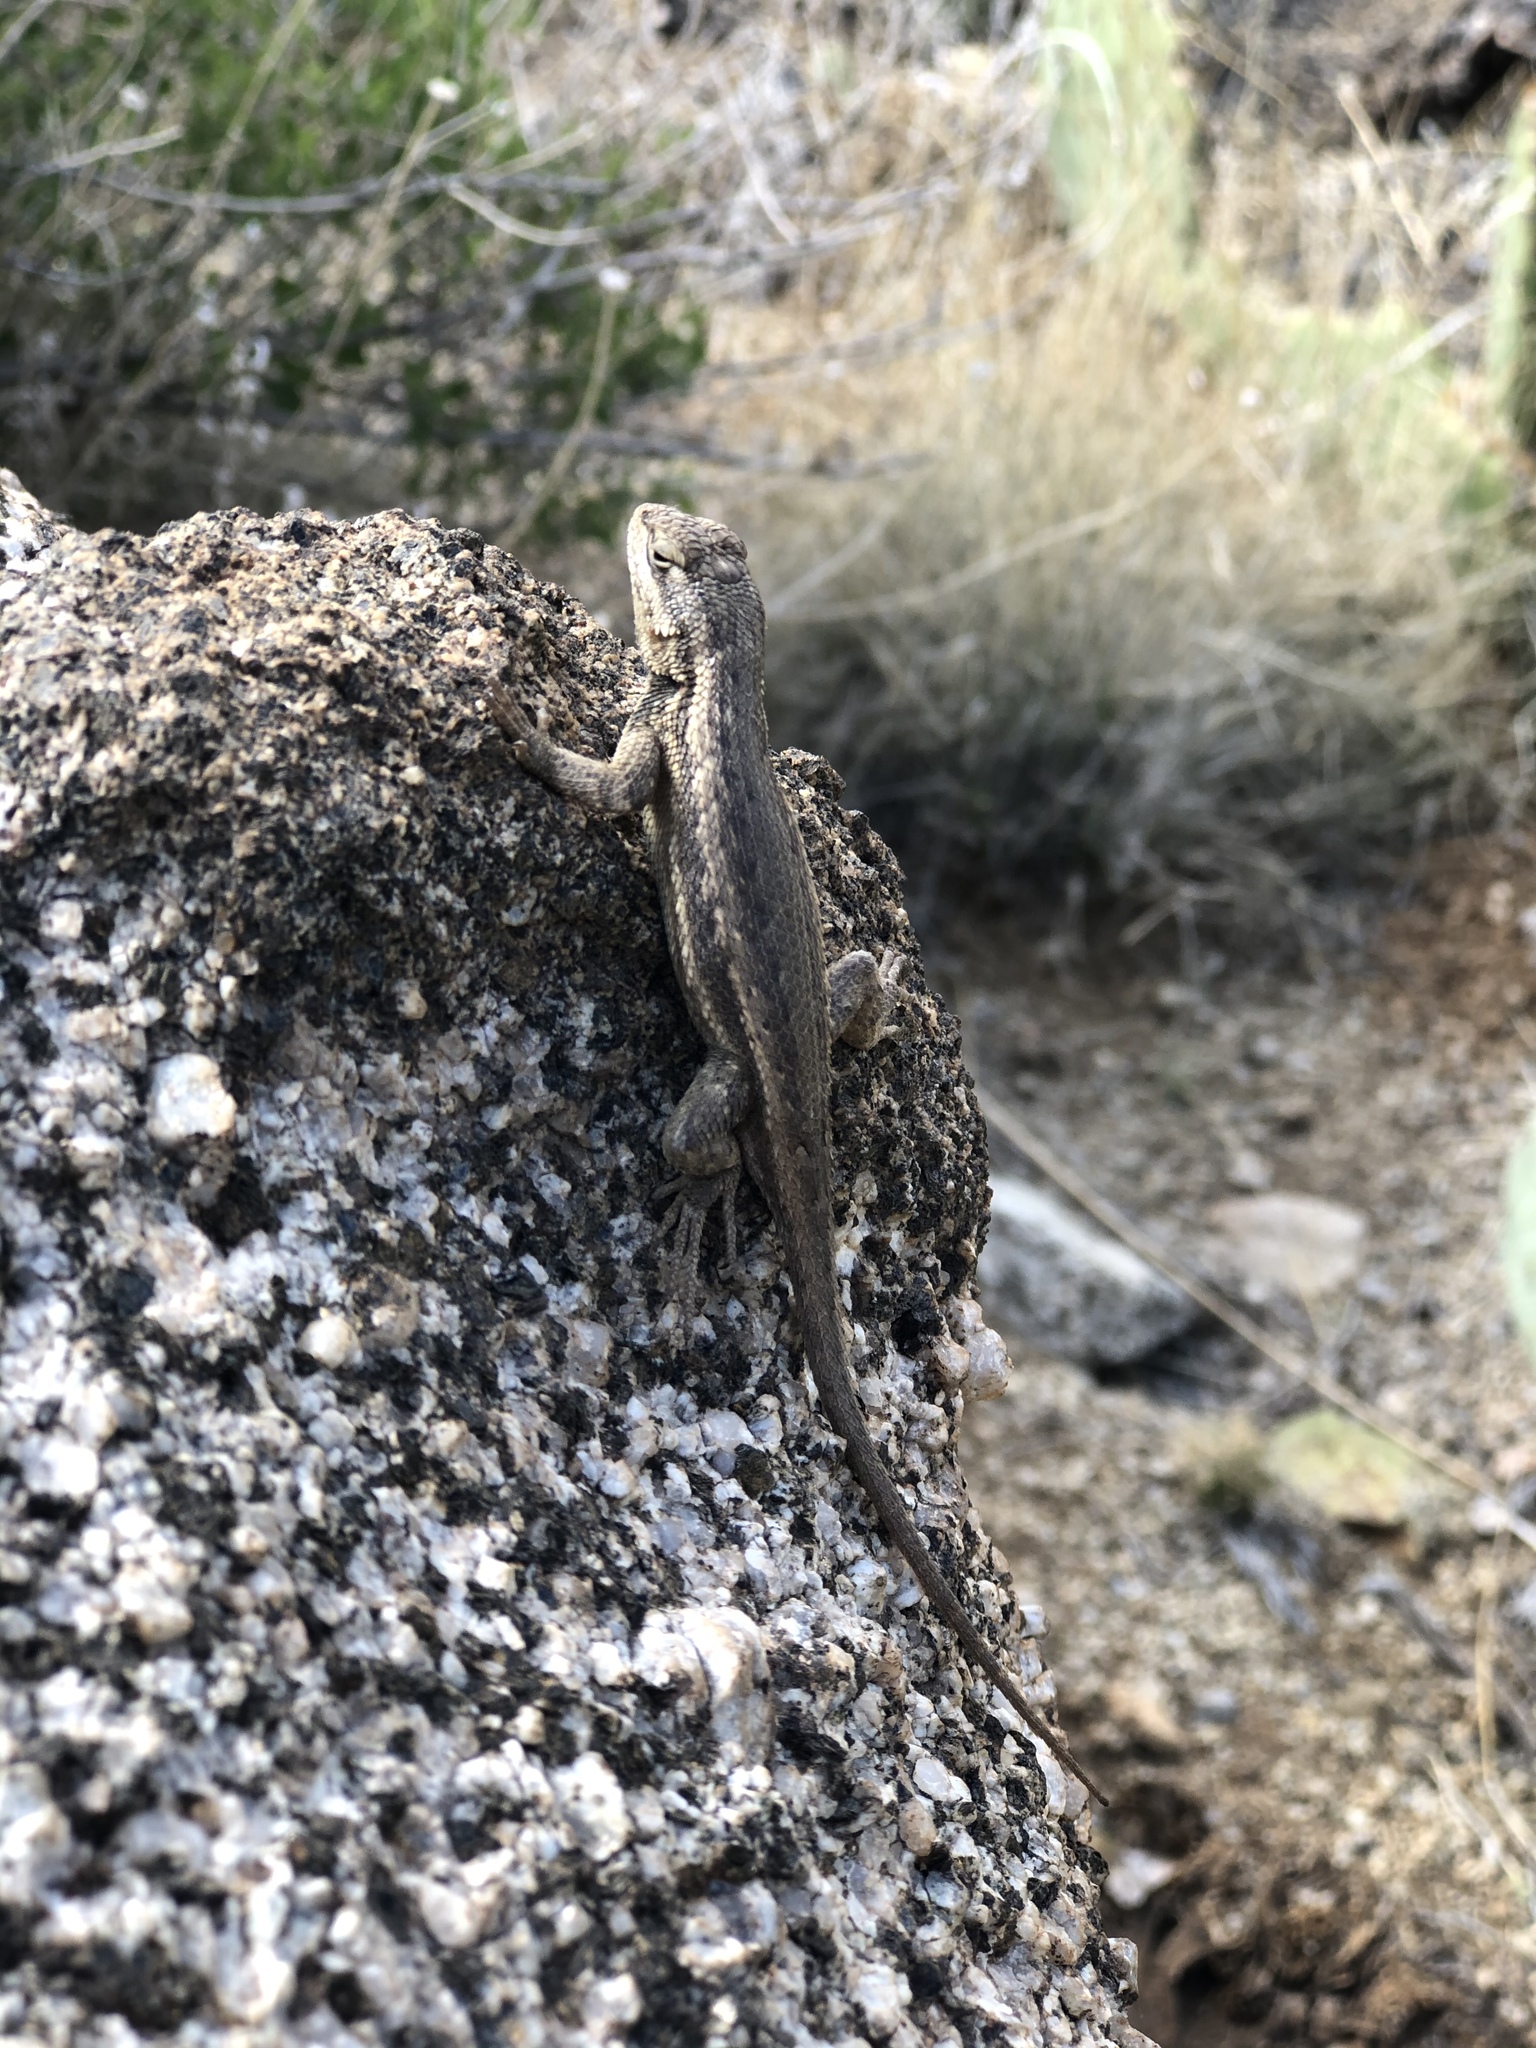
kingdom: Animalia
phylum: Chordata
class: Squamata
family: Phrynosomatidae
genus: Sceloporus
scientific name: Sceloporus cowlesi
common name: White sands prairie lizard
